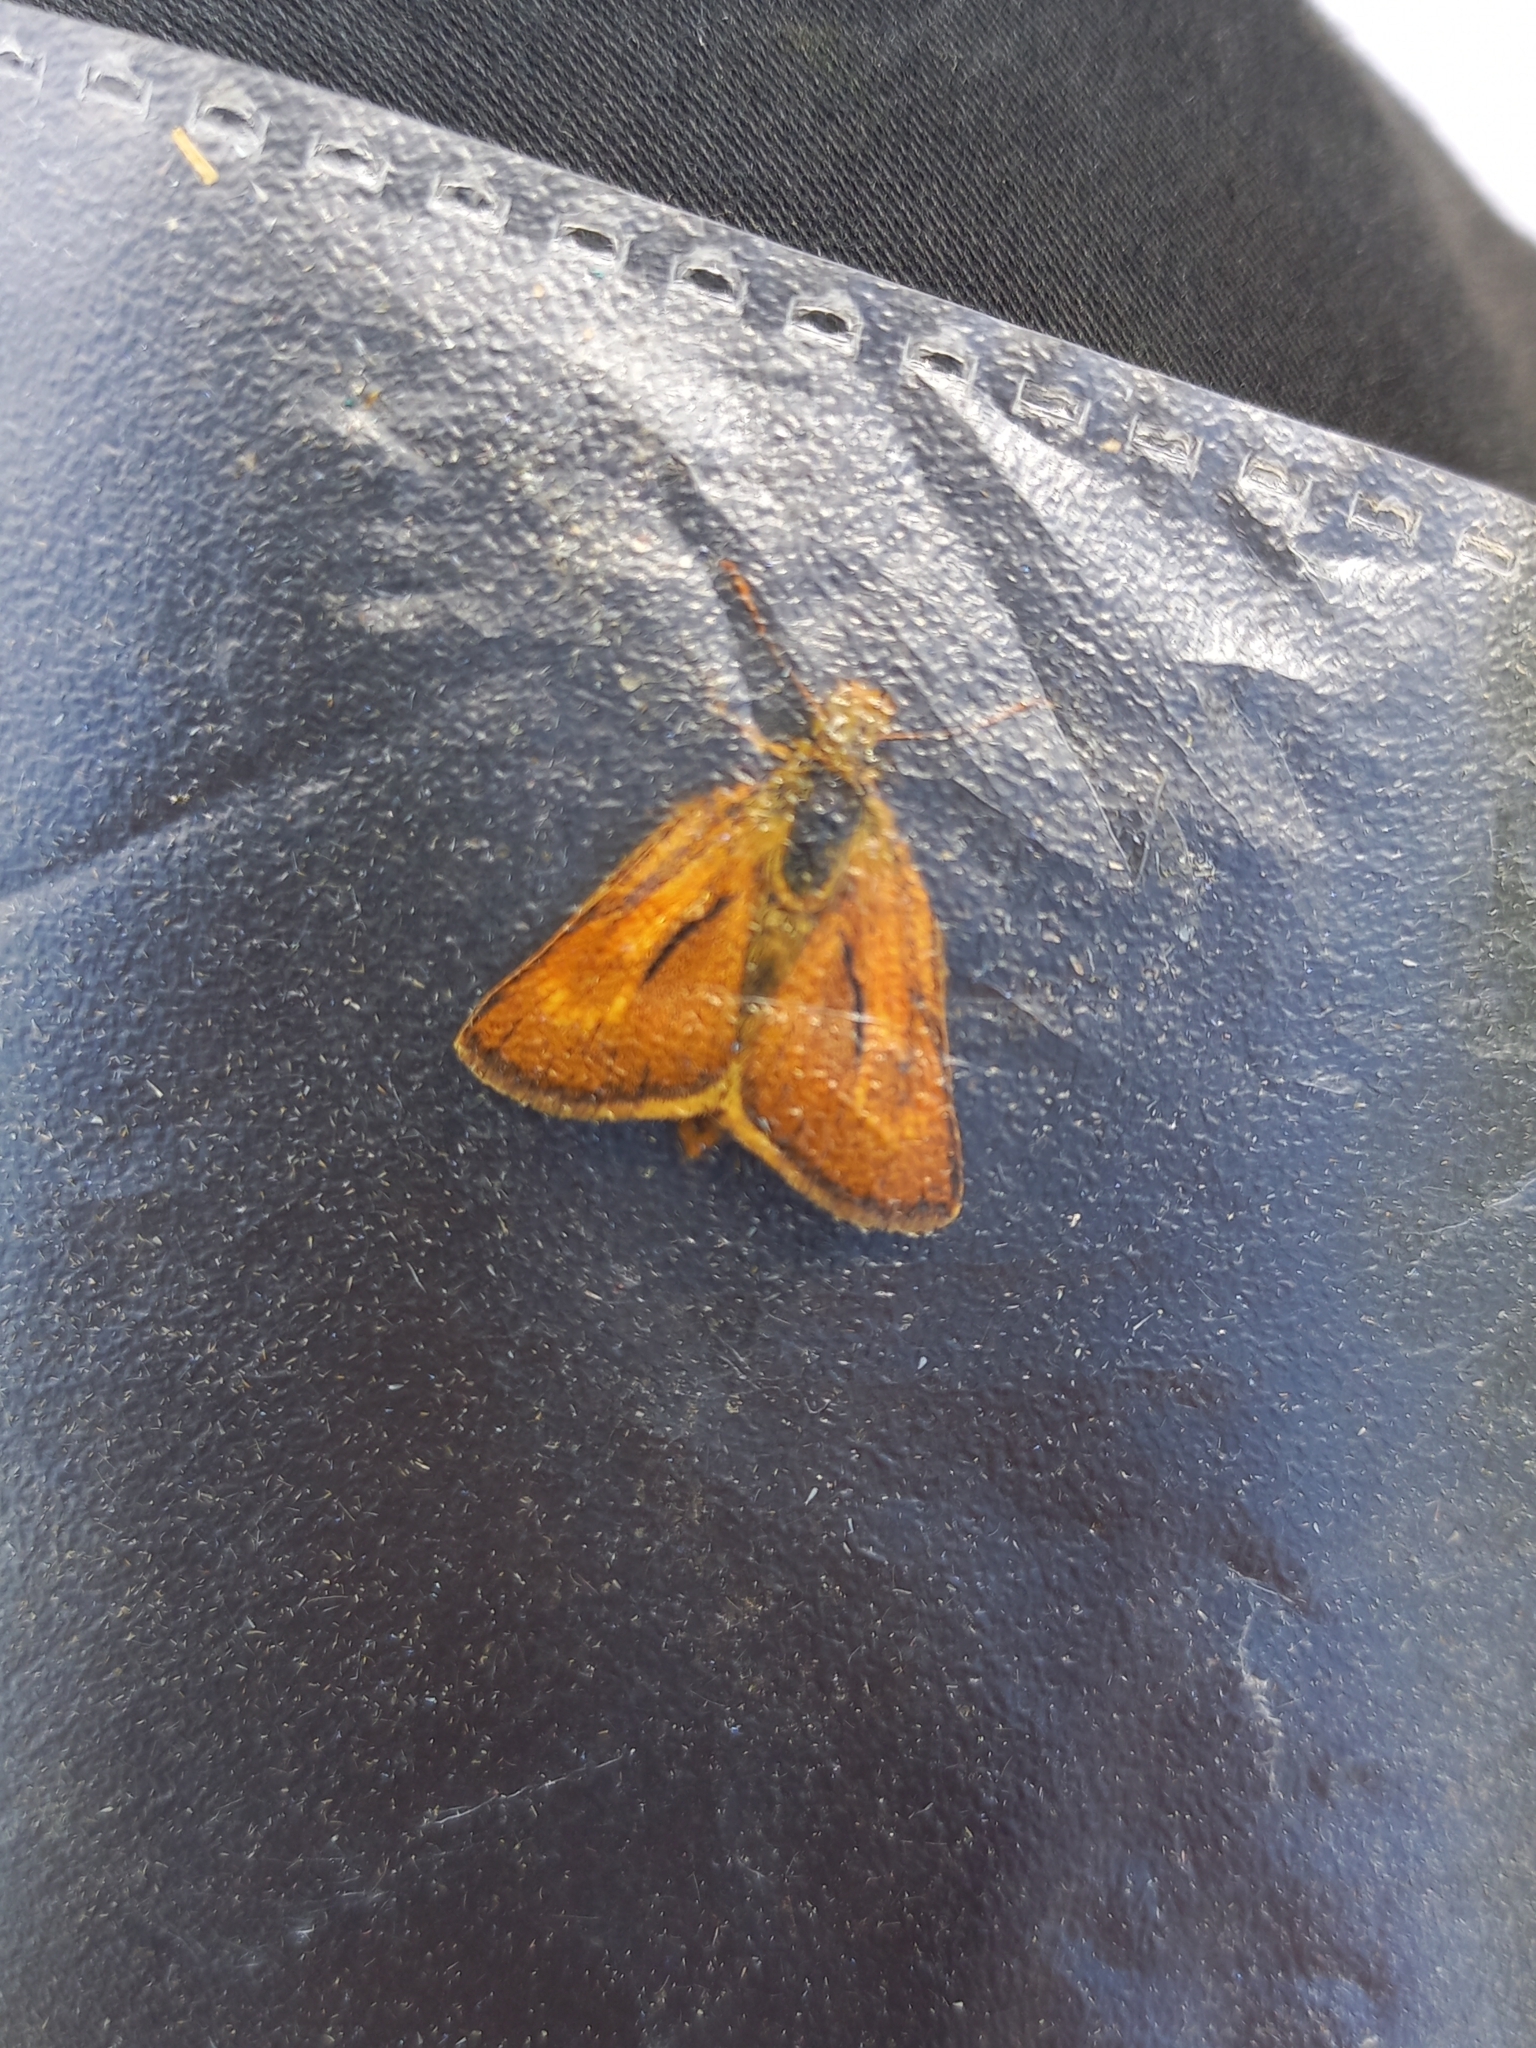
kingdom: Animalia
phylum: Arthropoda
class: Insecta
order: Lepidoptera
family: Hesperiidae
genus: Thymelicus
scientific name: Thymelicus acteon
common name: Lulworth skipper
